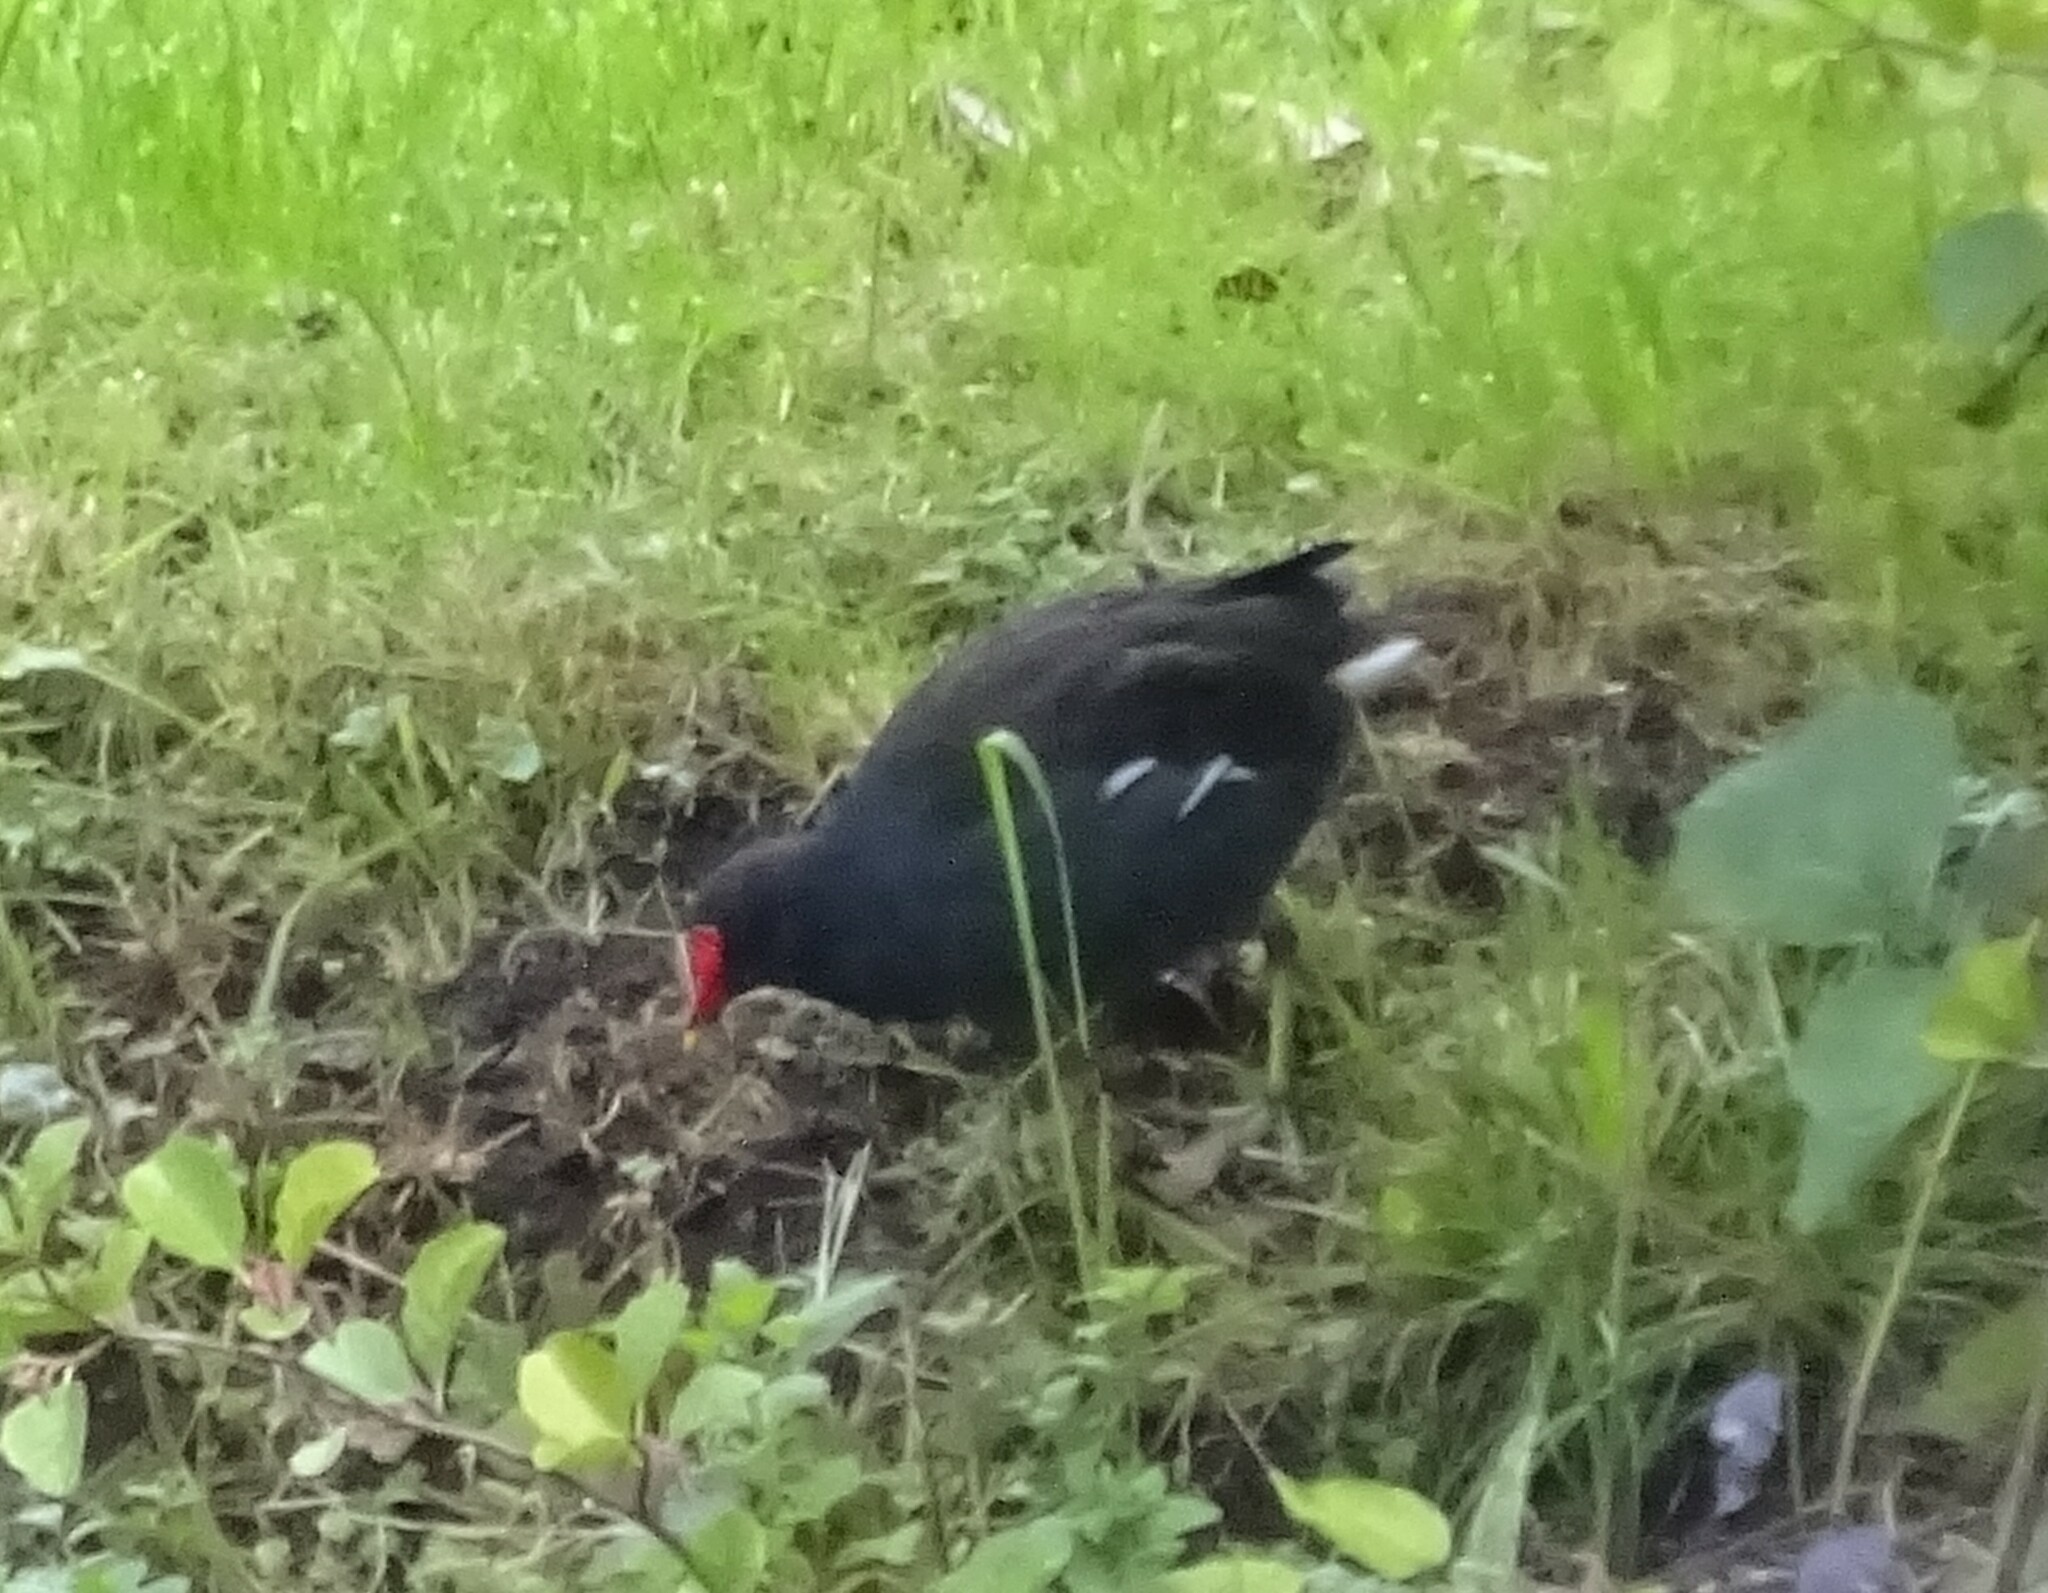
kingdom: Animalia
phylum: Chordata
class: Aves
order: Gruiformes
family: Rallidae
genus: Gallinula
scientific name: Gallinula chloropus
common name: Common moorhen
